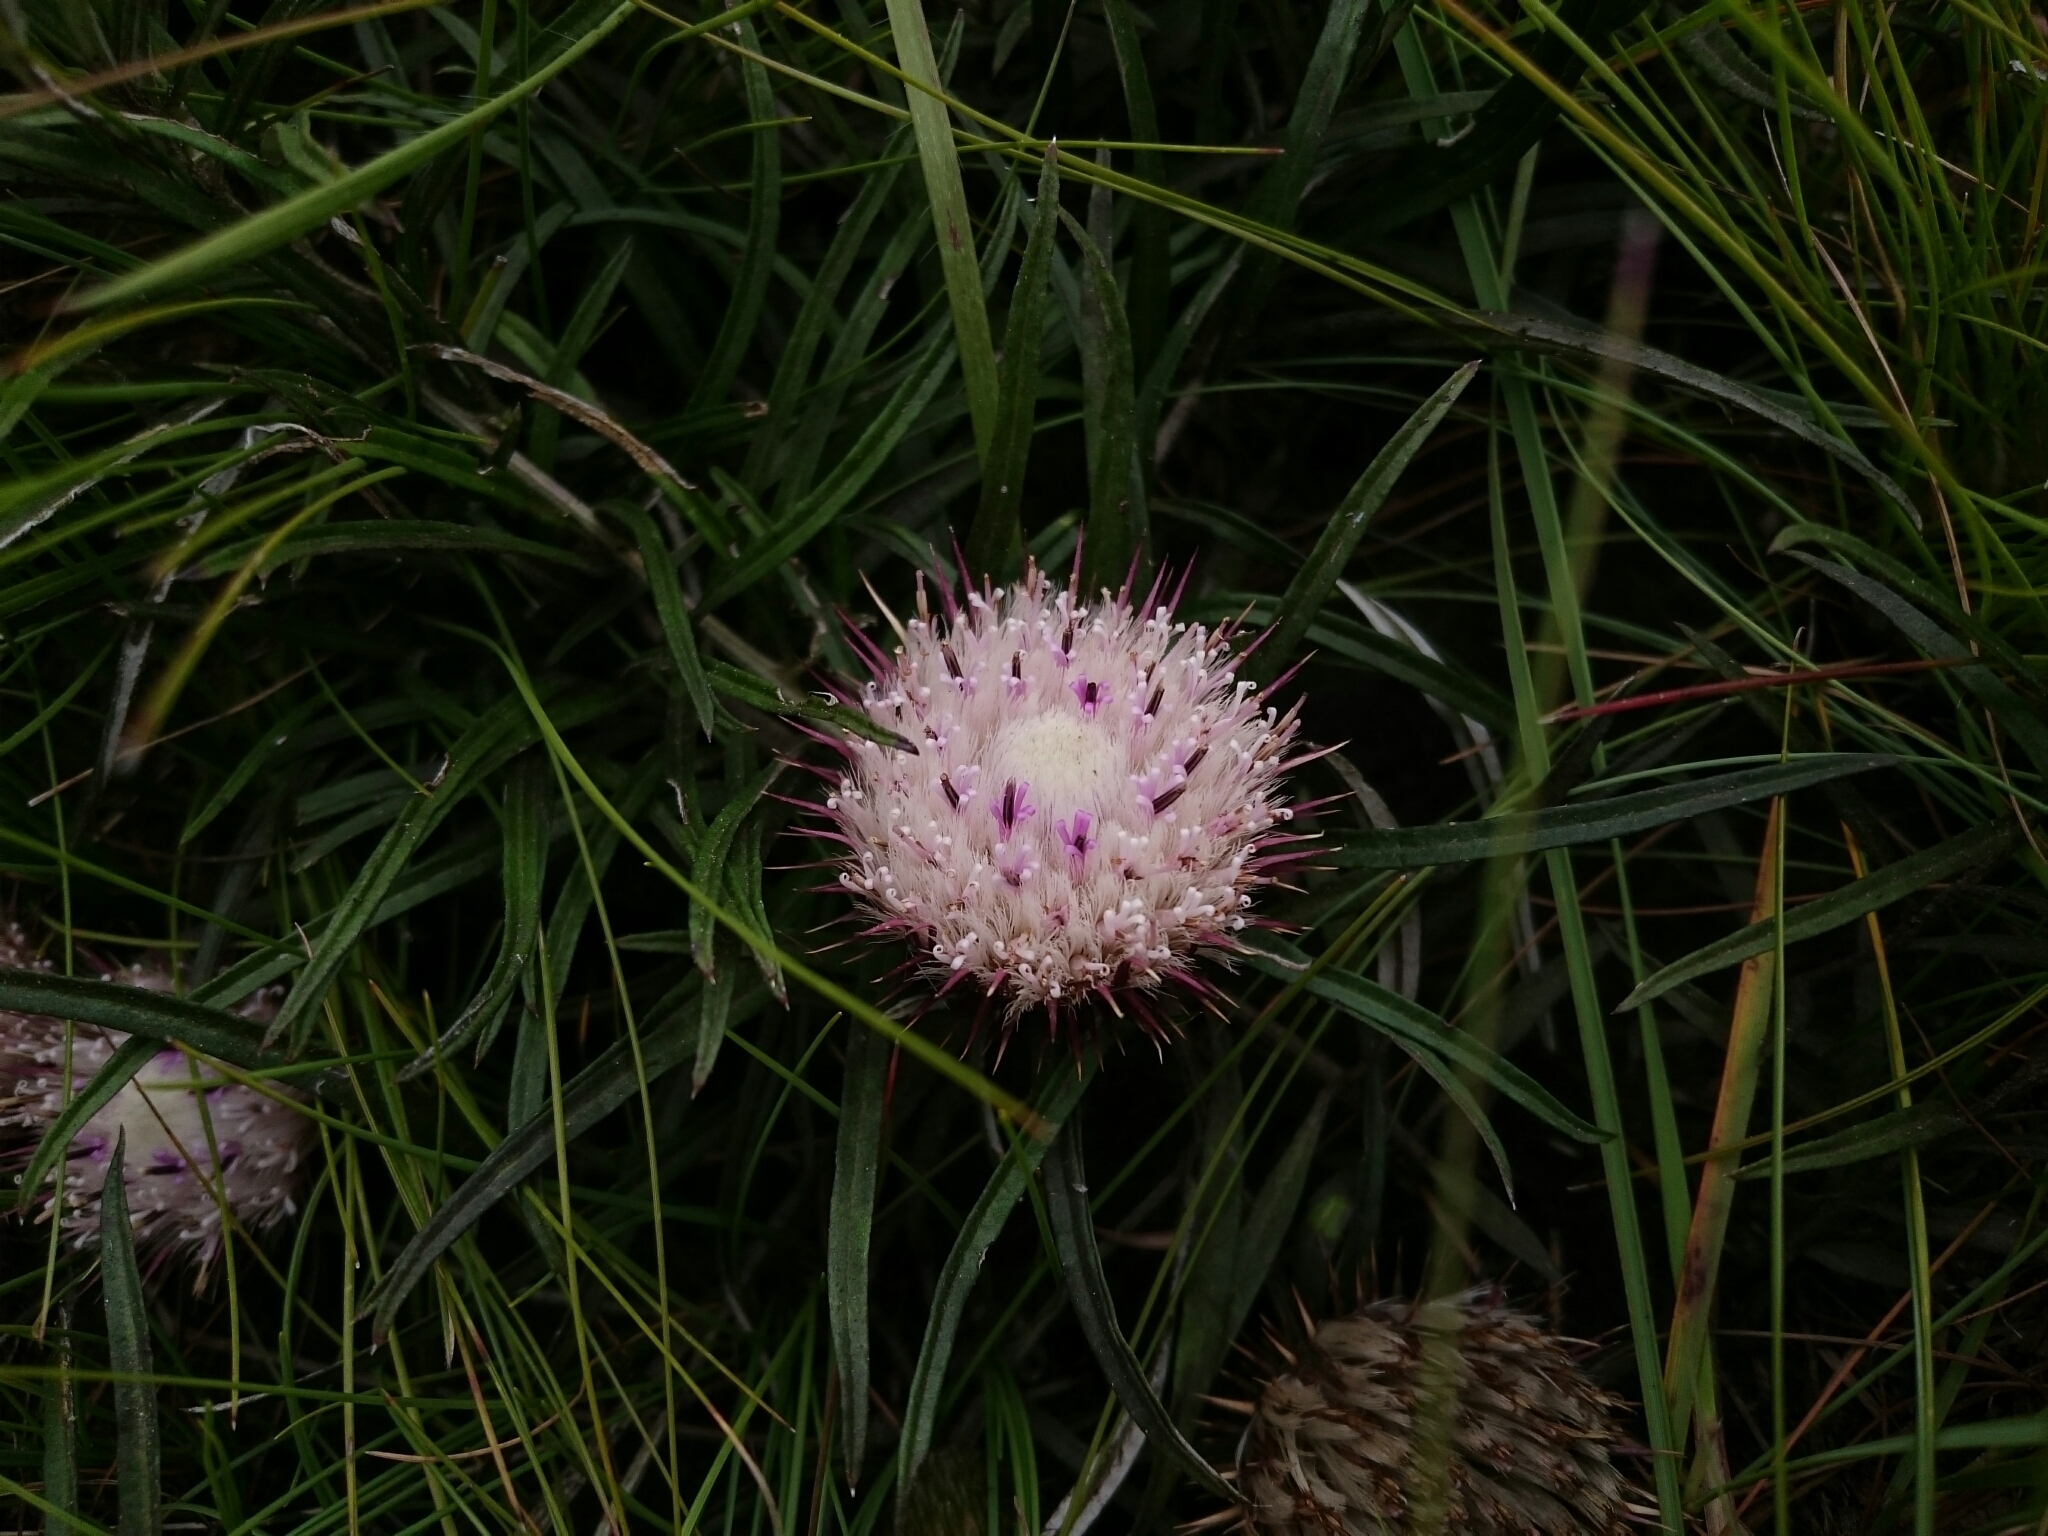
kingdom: Plantae
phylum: Tracheophyta
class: Magnoliopsida
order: Asterales
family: Asteraceae
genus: Dicoma
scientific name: Dicoma anomala
